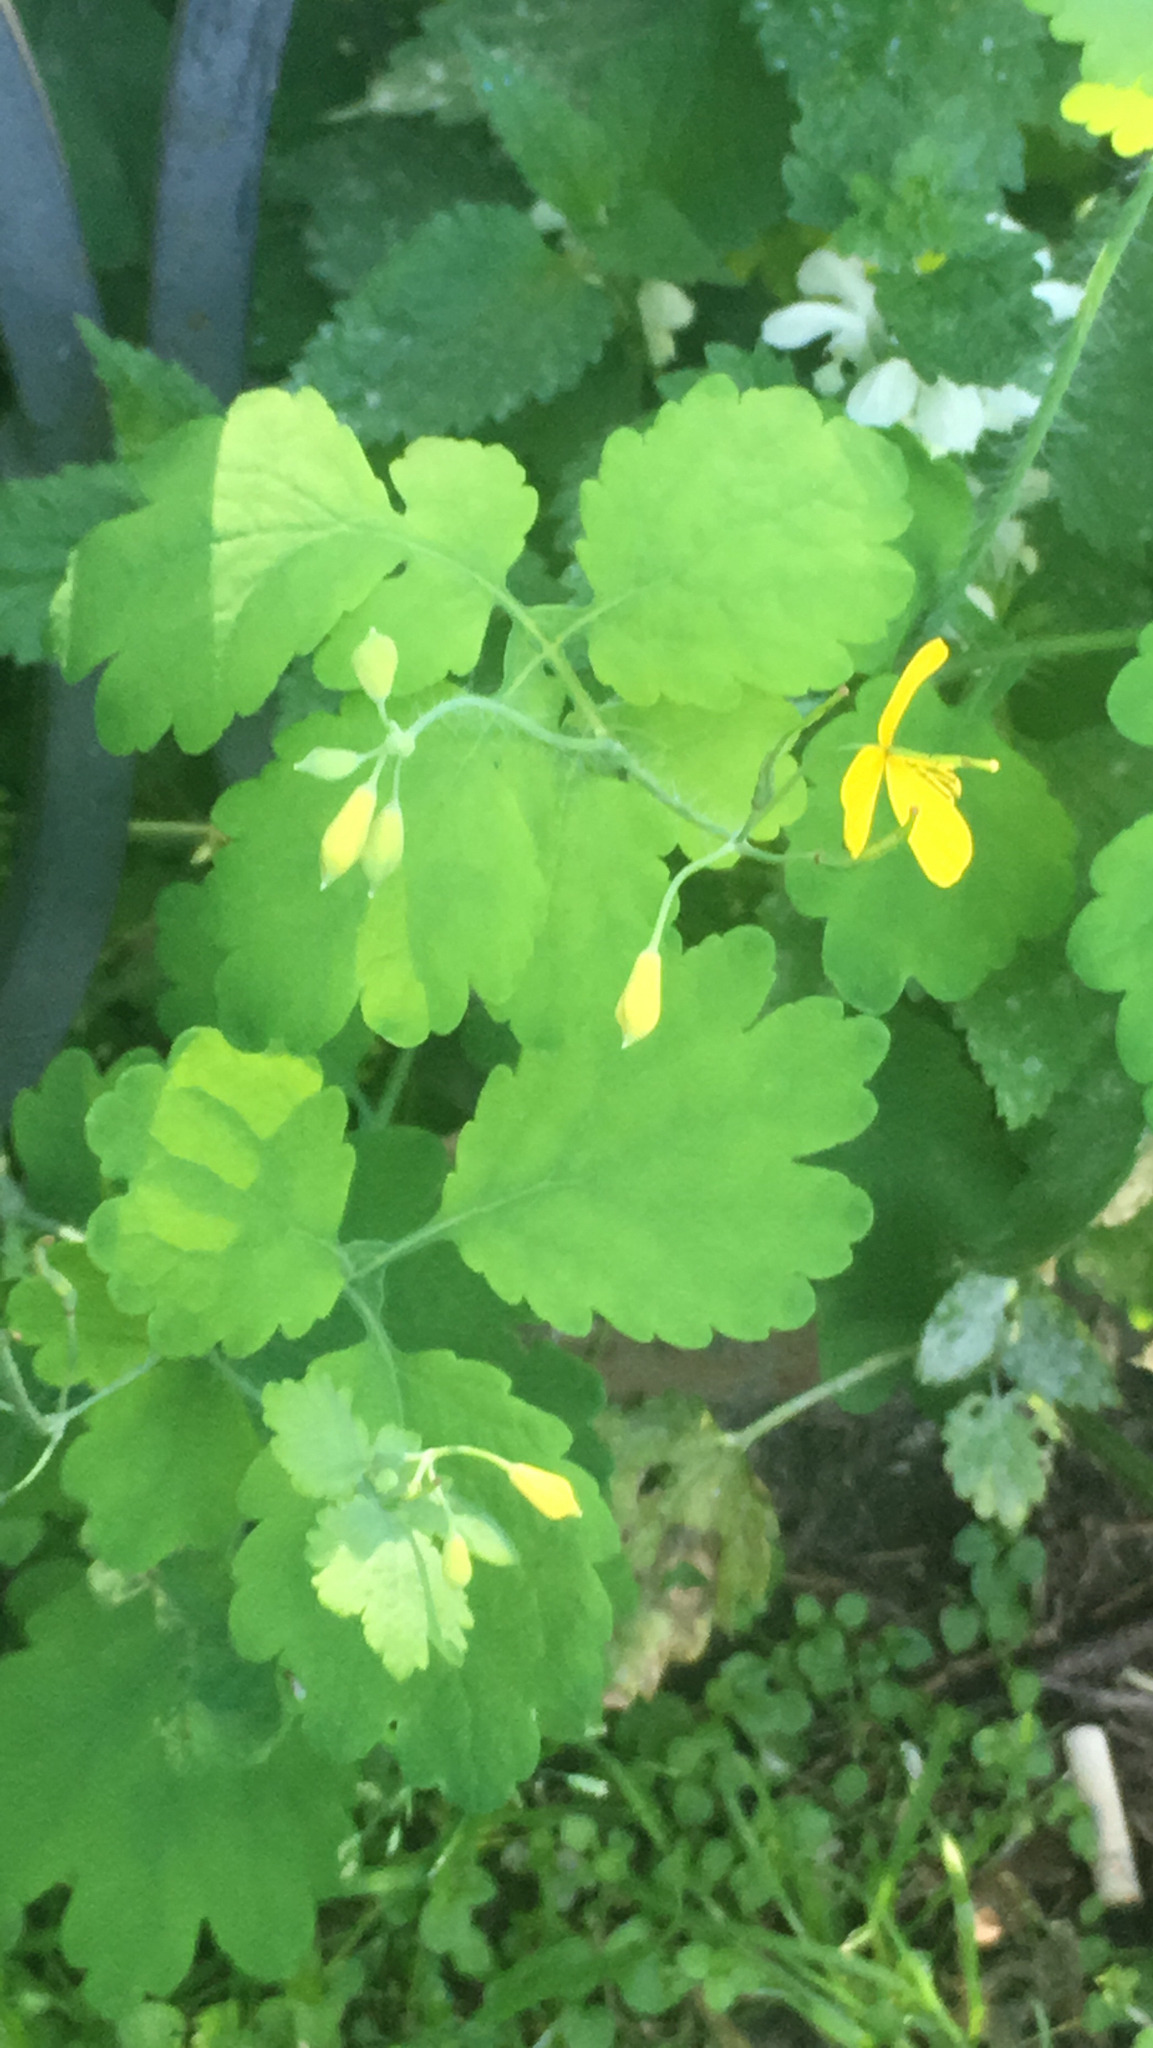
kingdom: Plantae
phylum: Tracheophyta
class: Magnoliopsida
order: Ranunculales
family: Papaveraceae
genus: Chelidonium
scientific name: Chelidonium majus
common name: Greater celandine
